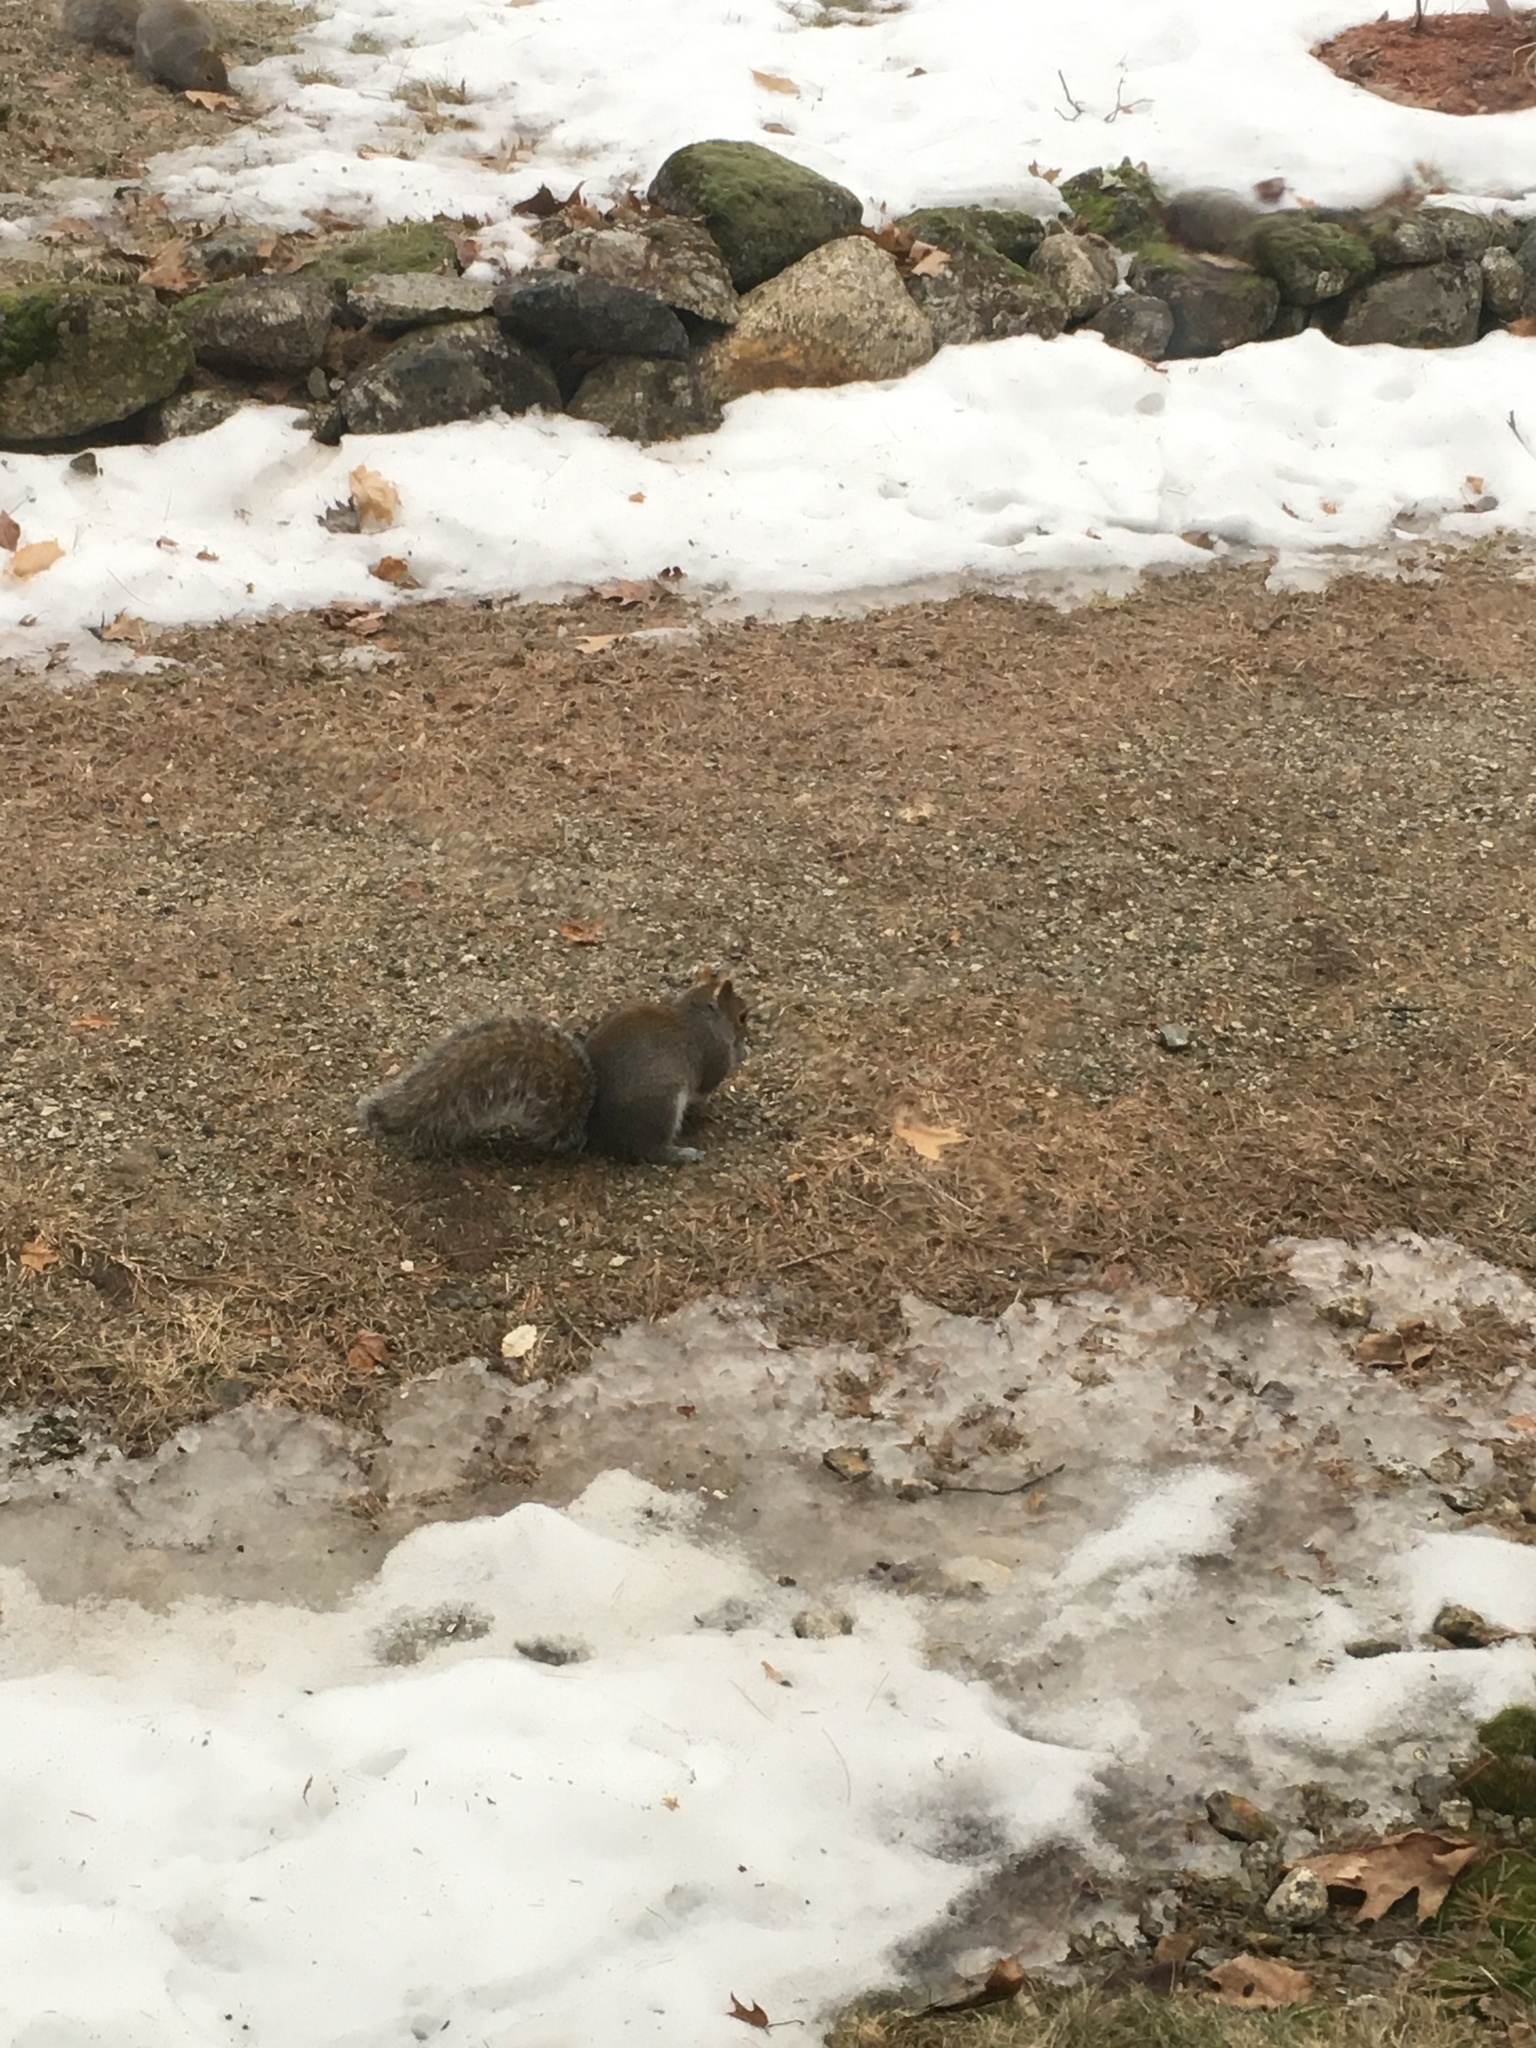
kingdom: Animalia
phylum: Chordata
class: Mammalia
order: Rodentia
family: Sciuridae
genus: Sciurus
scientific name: Sciurus carolinensis
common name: Eastern gray squirrel
